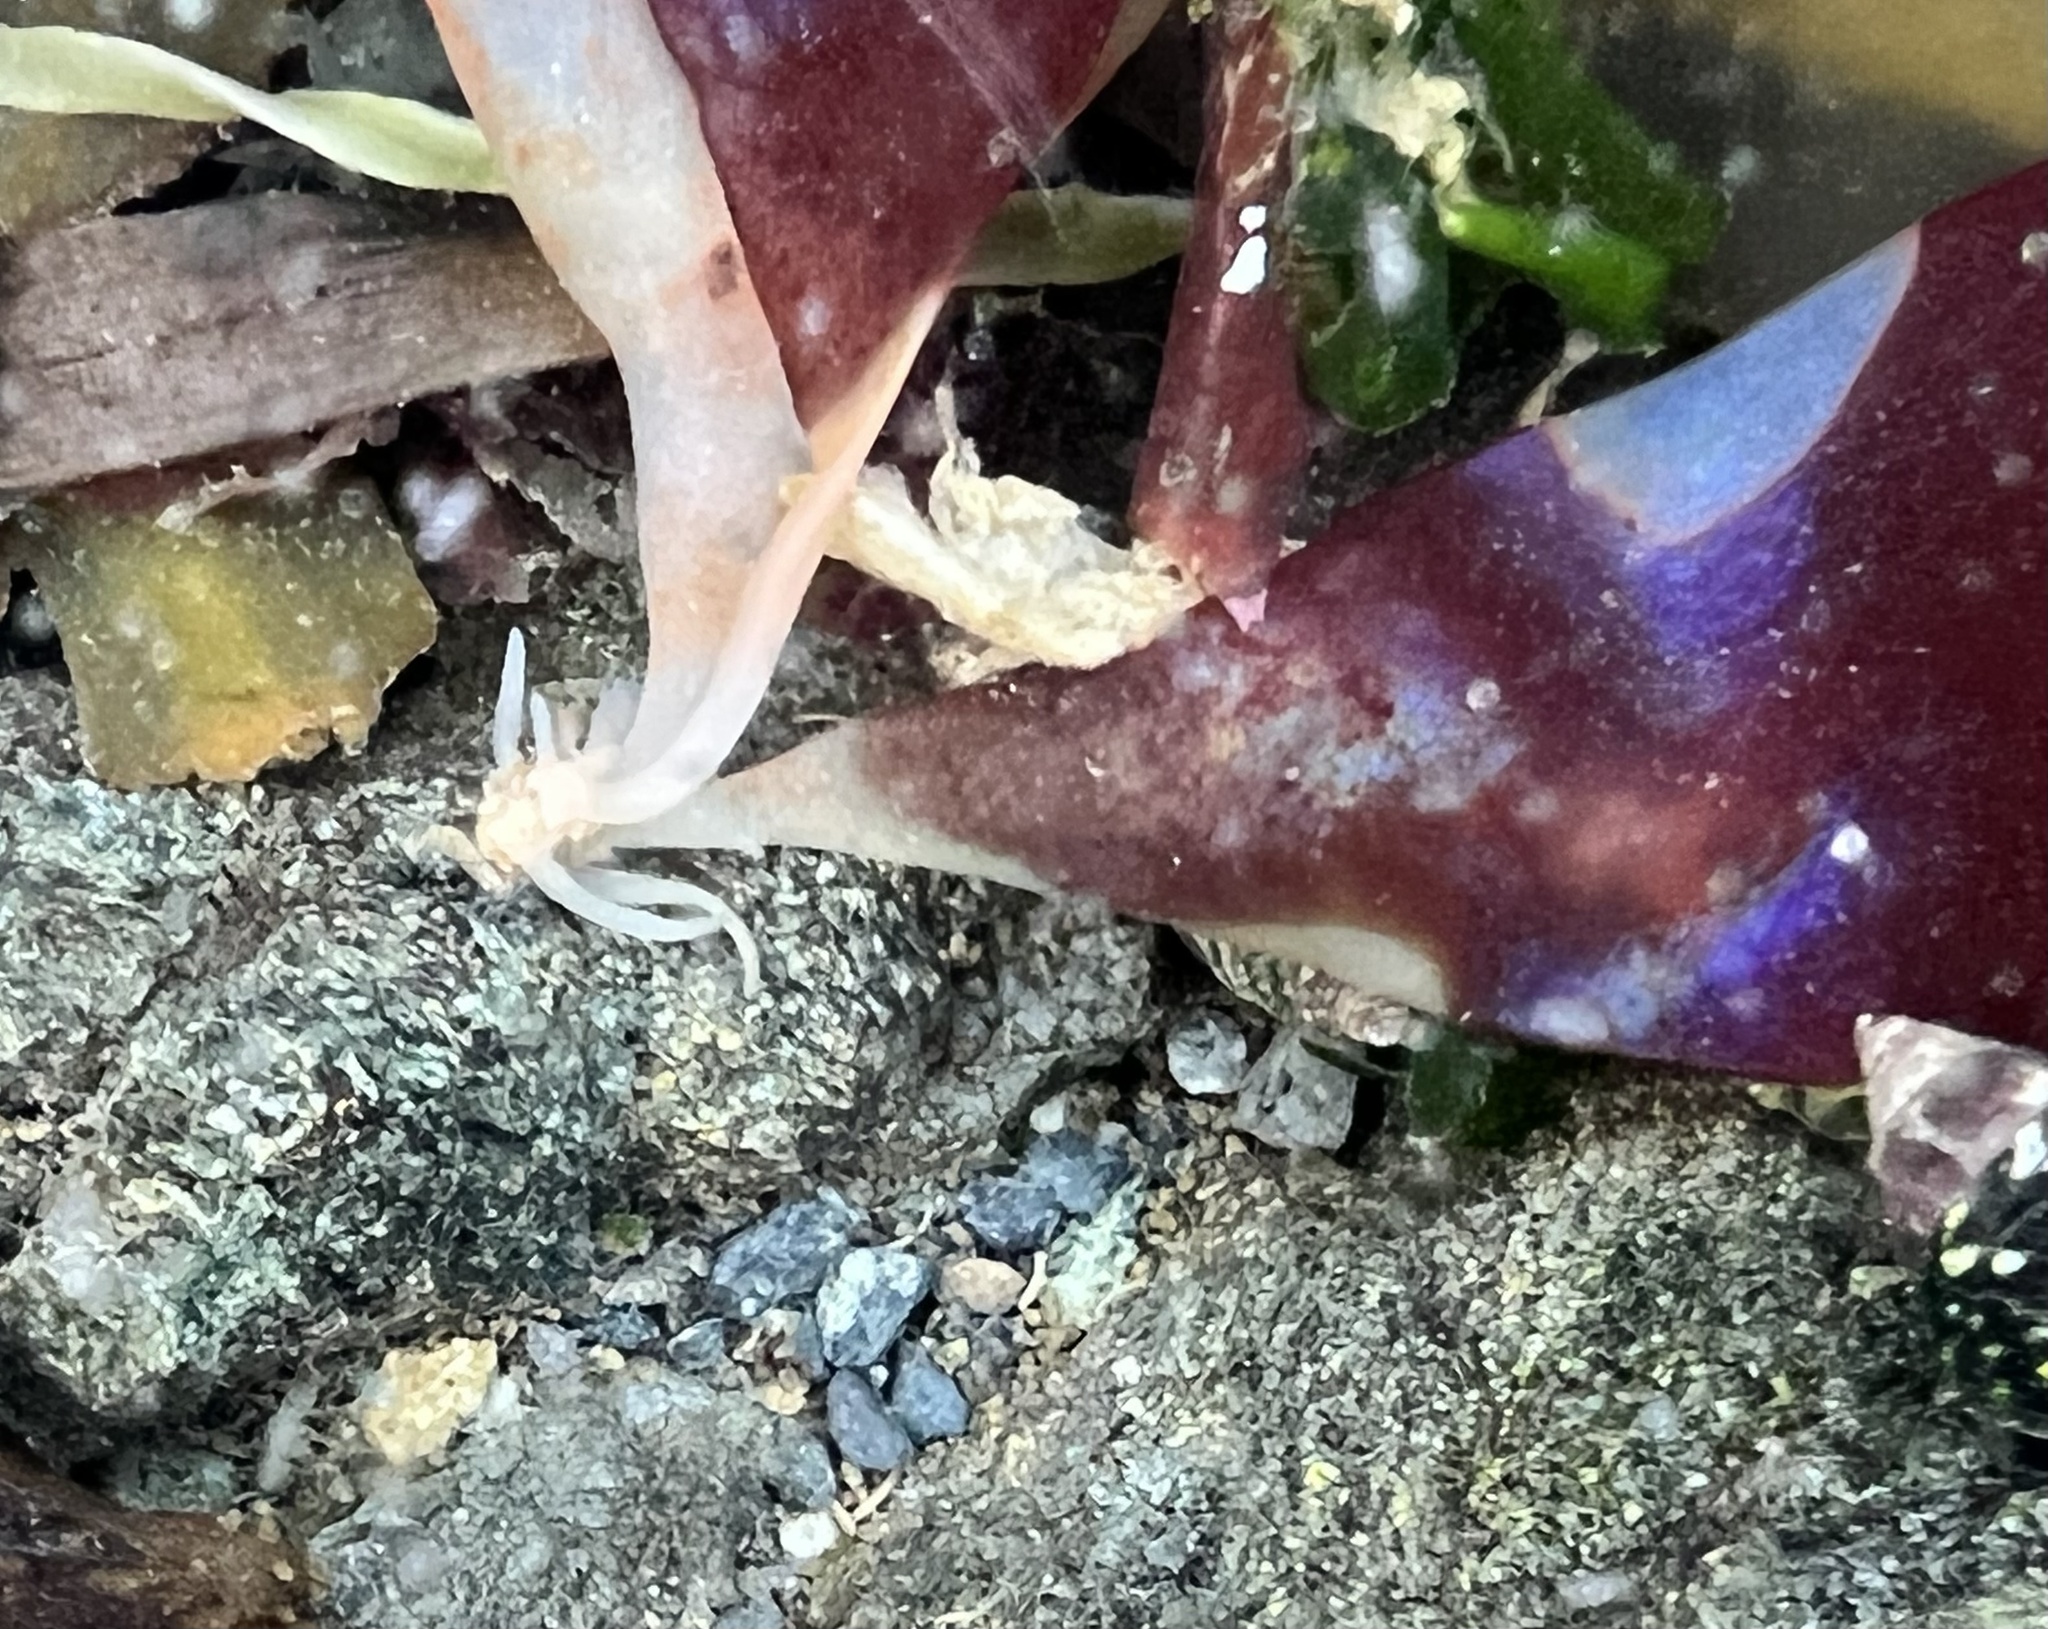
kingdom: Plantae
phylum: Rhodophyta
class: Florideophyceae
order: Gigartinales
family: Gigartinaceae
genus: Mazzaella
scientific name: Mazzaella splendens
